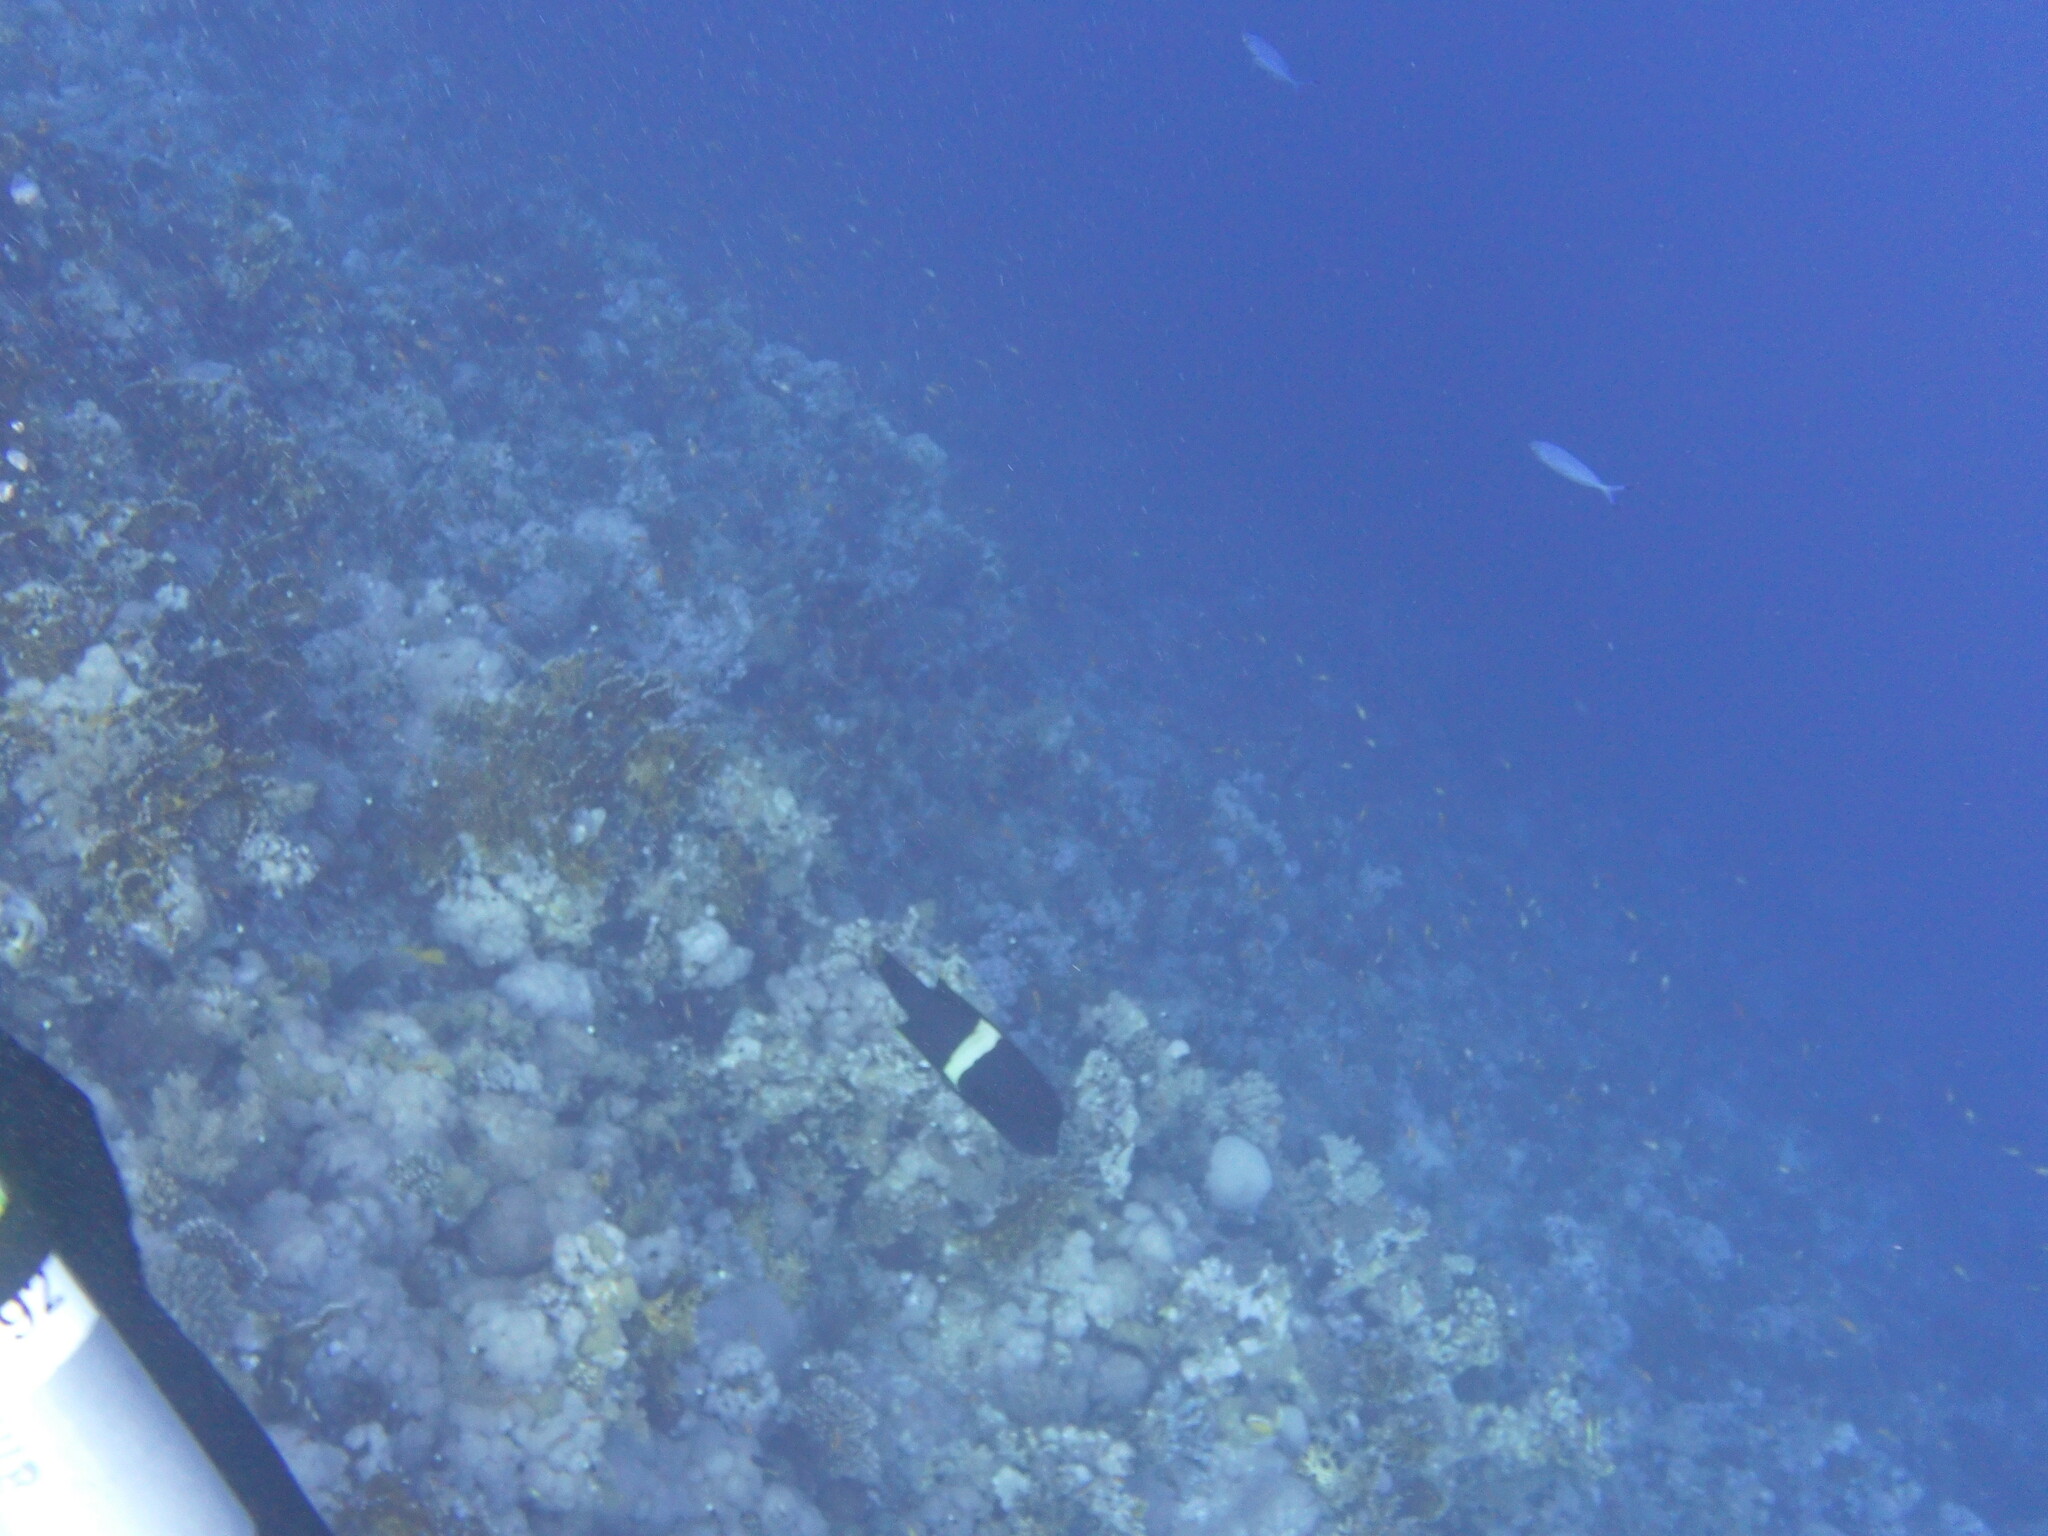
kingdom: Animalia
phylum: Chordata
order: Perciformes
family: Labridae
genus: Coris
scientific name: Coris aygula
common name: Clown coris
